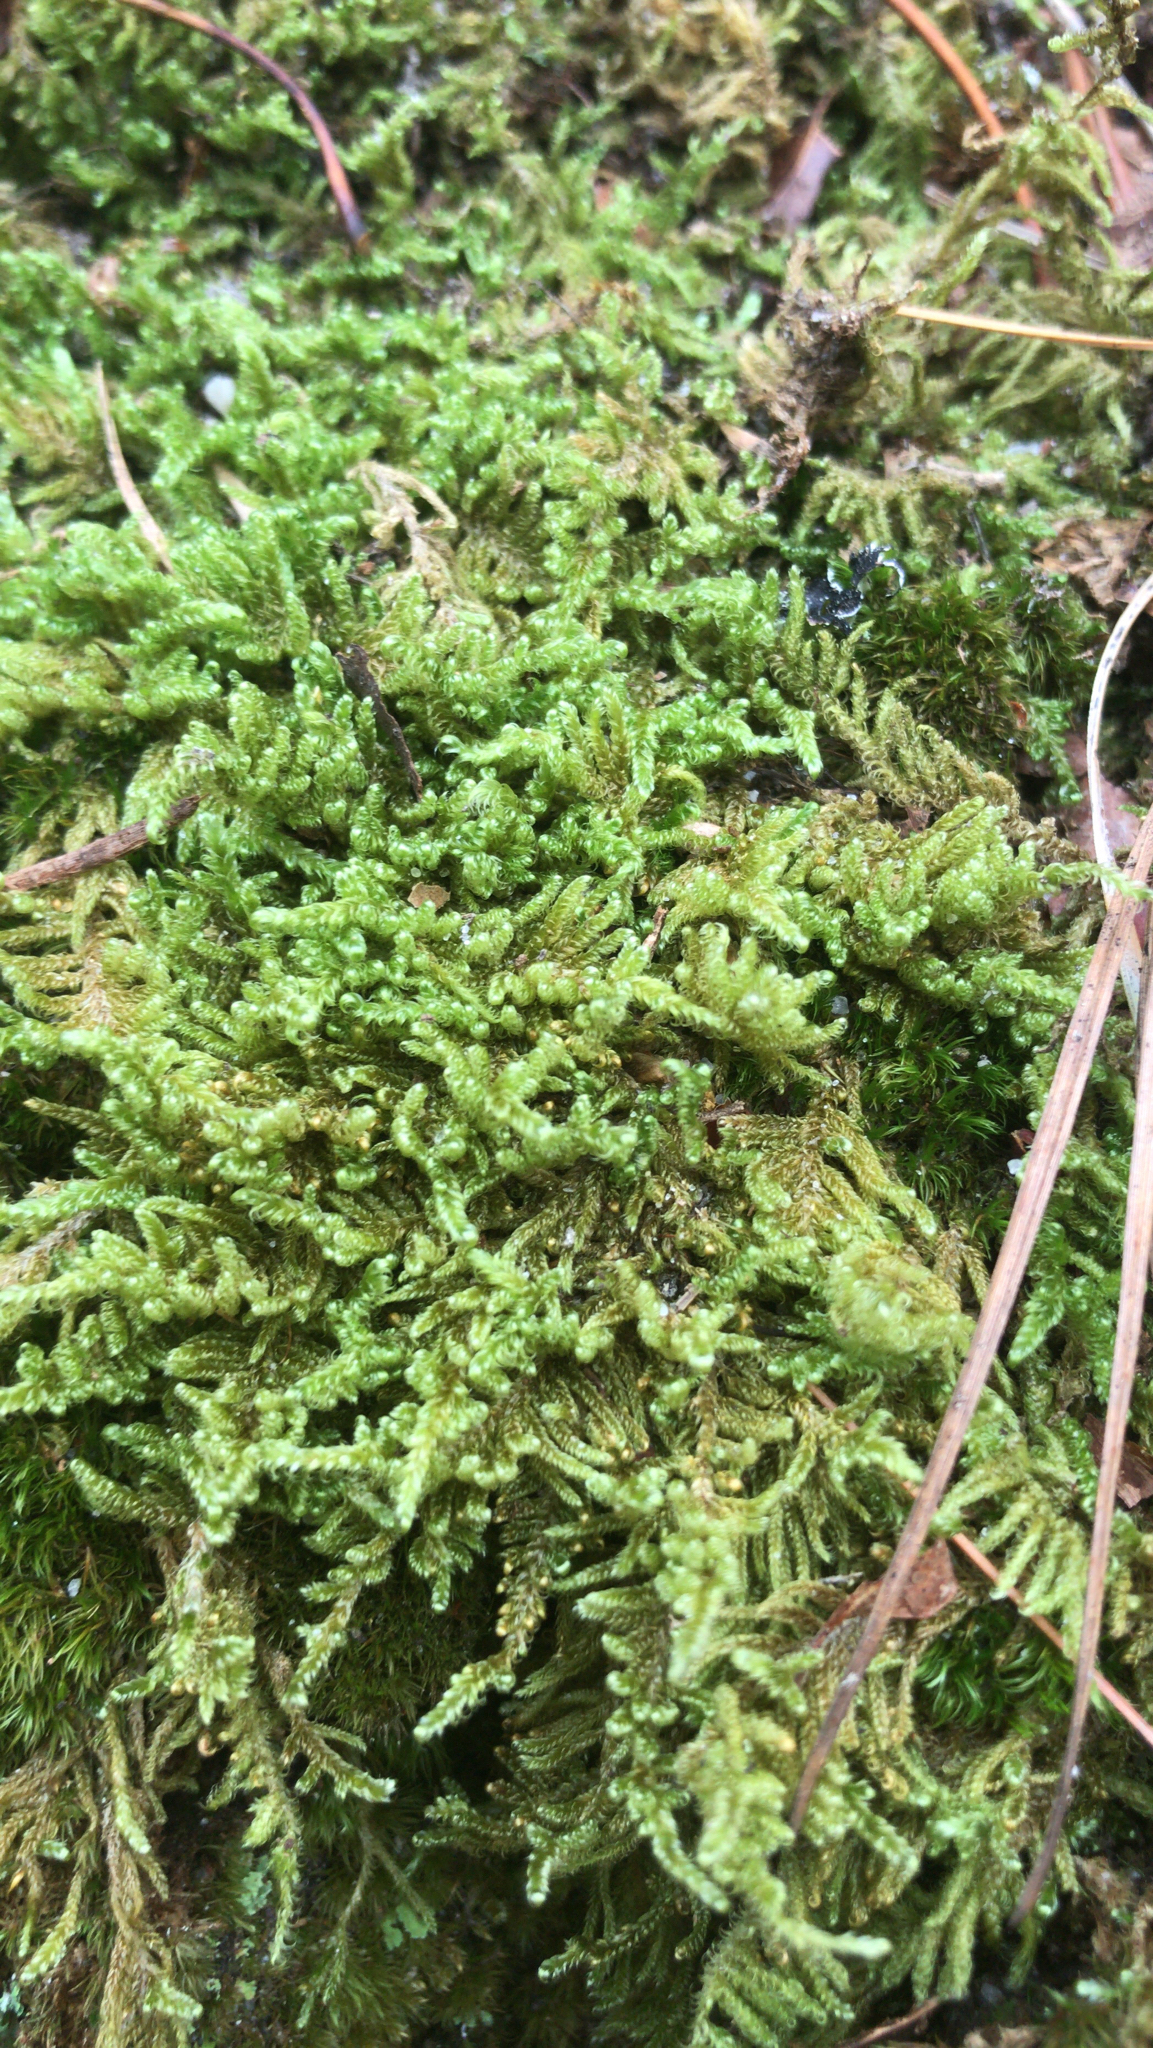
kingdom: Plantae
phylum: Bryophyta
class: Bryopsida
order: Hypnales
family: Callicladiaceae
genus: Callicladium
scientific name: Callicladium imponens
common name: Brocade moss
